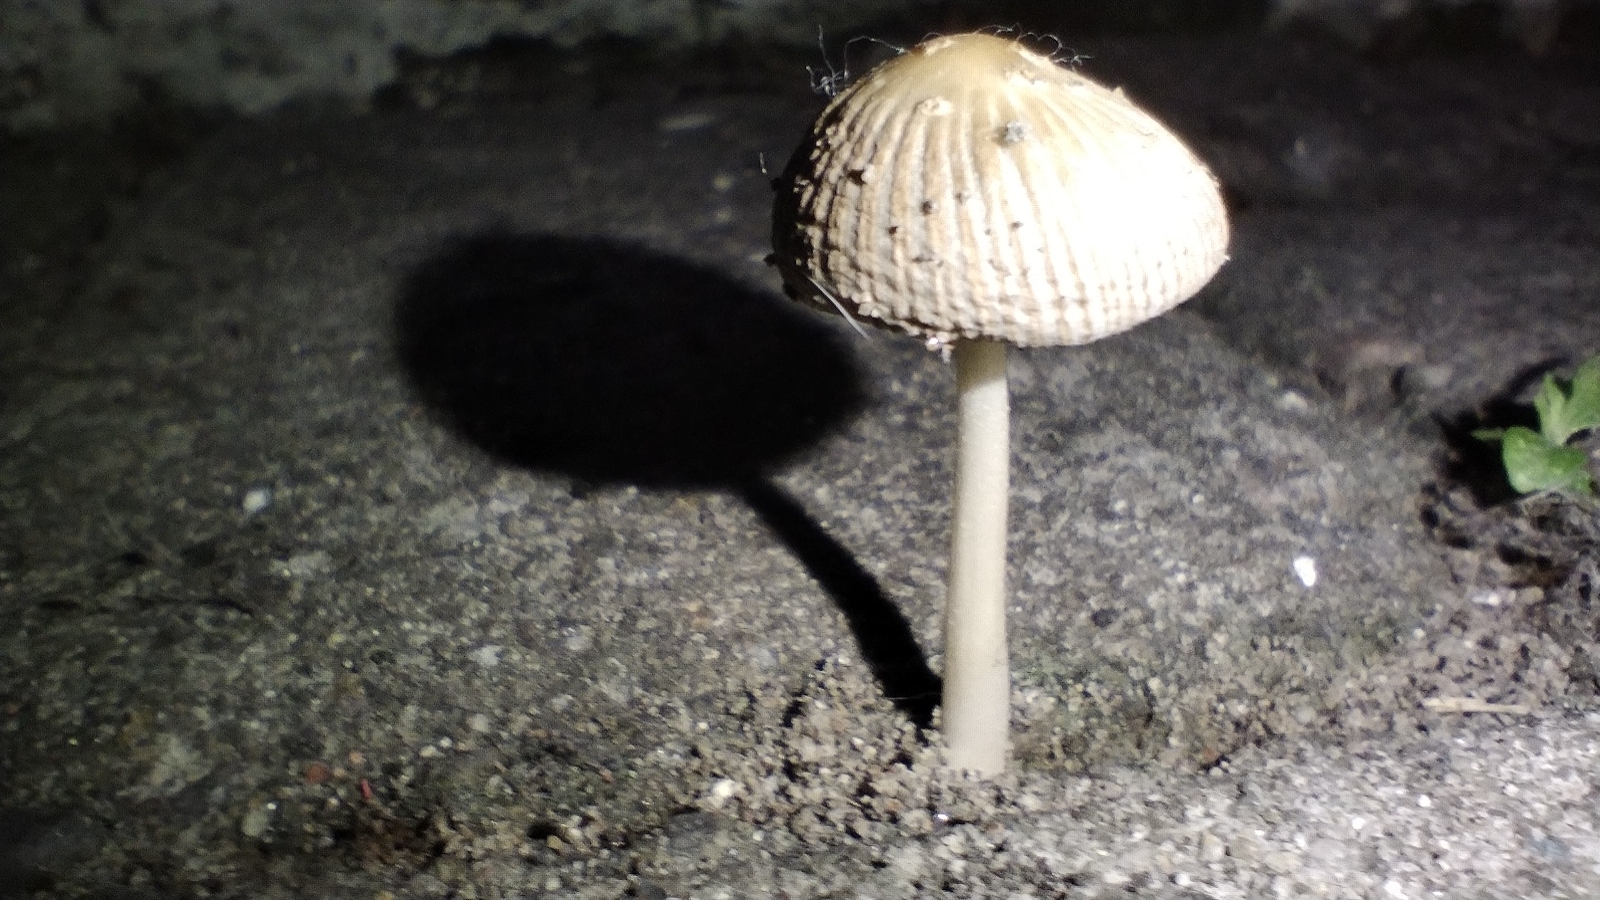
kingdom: Fungi
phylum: Basidiomycota
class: Agaricomycetes
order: Agaricales
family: Psathyrellaceae
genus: Coprinellus
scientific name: Coprinellus arenicola
